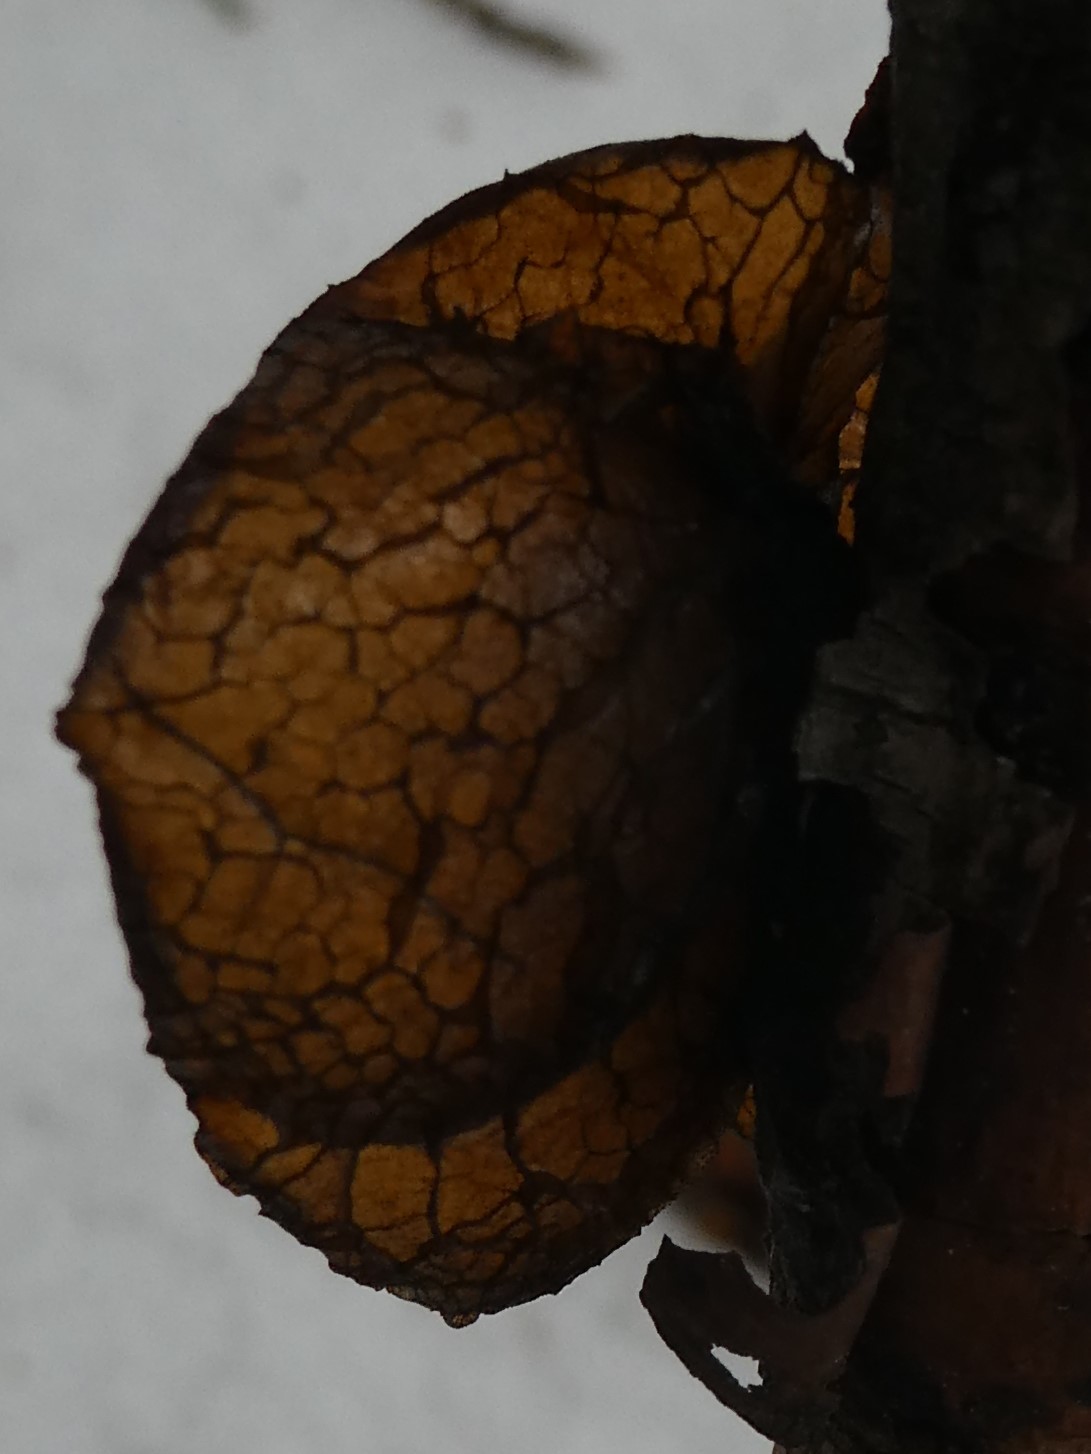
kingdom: Fungi
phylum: Basidiomycota
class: Agaricomycetes
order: Auriculariales
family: Auriculariaceae
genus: Exidia
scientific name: Exidia
